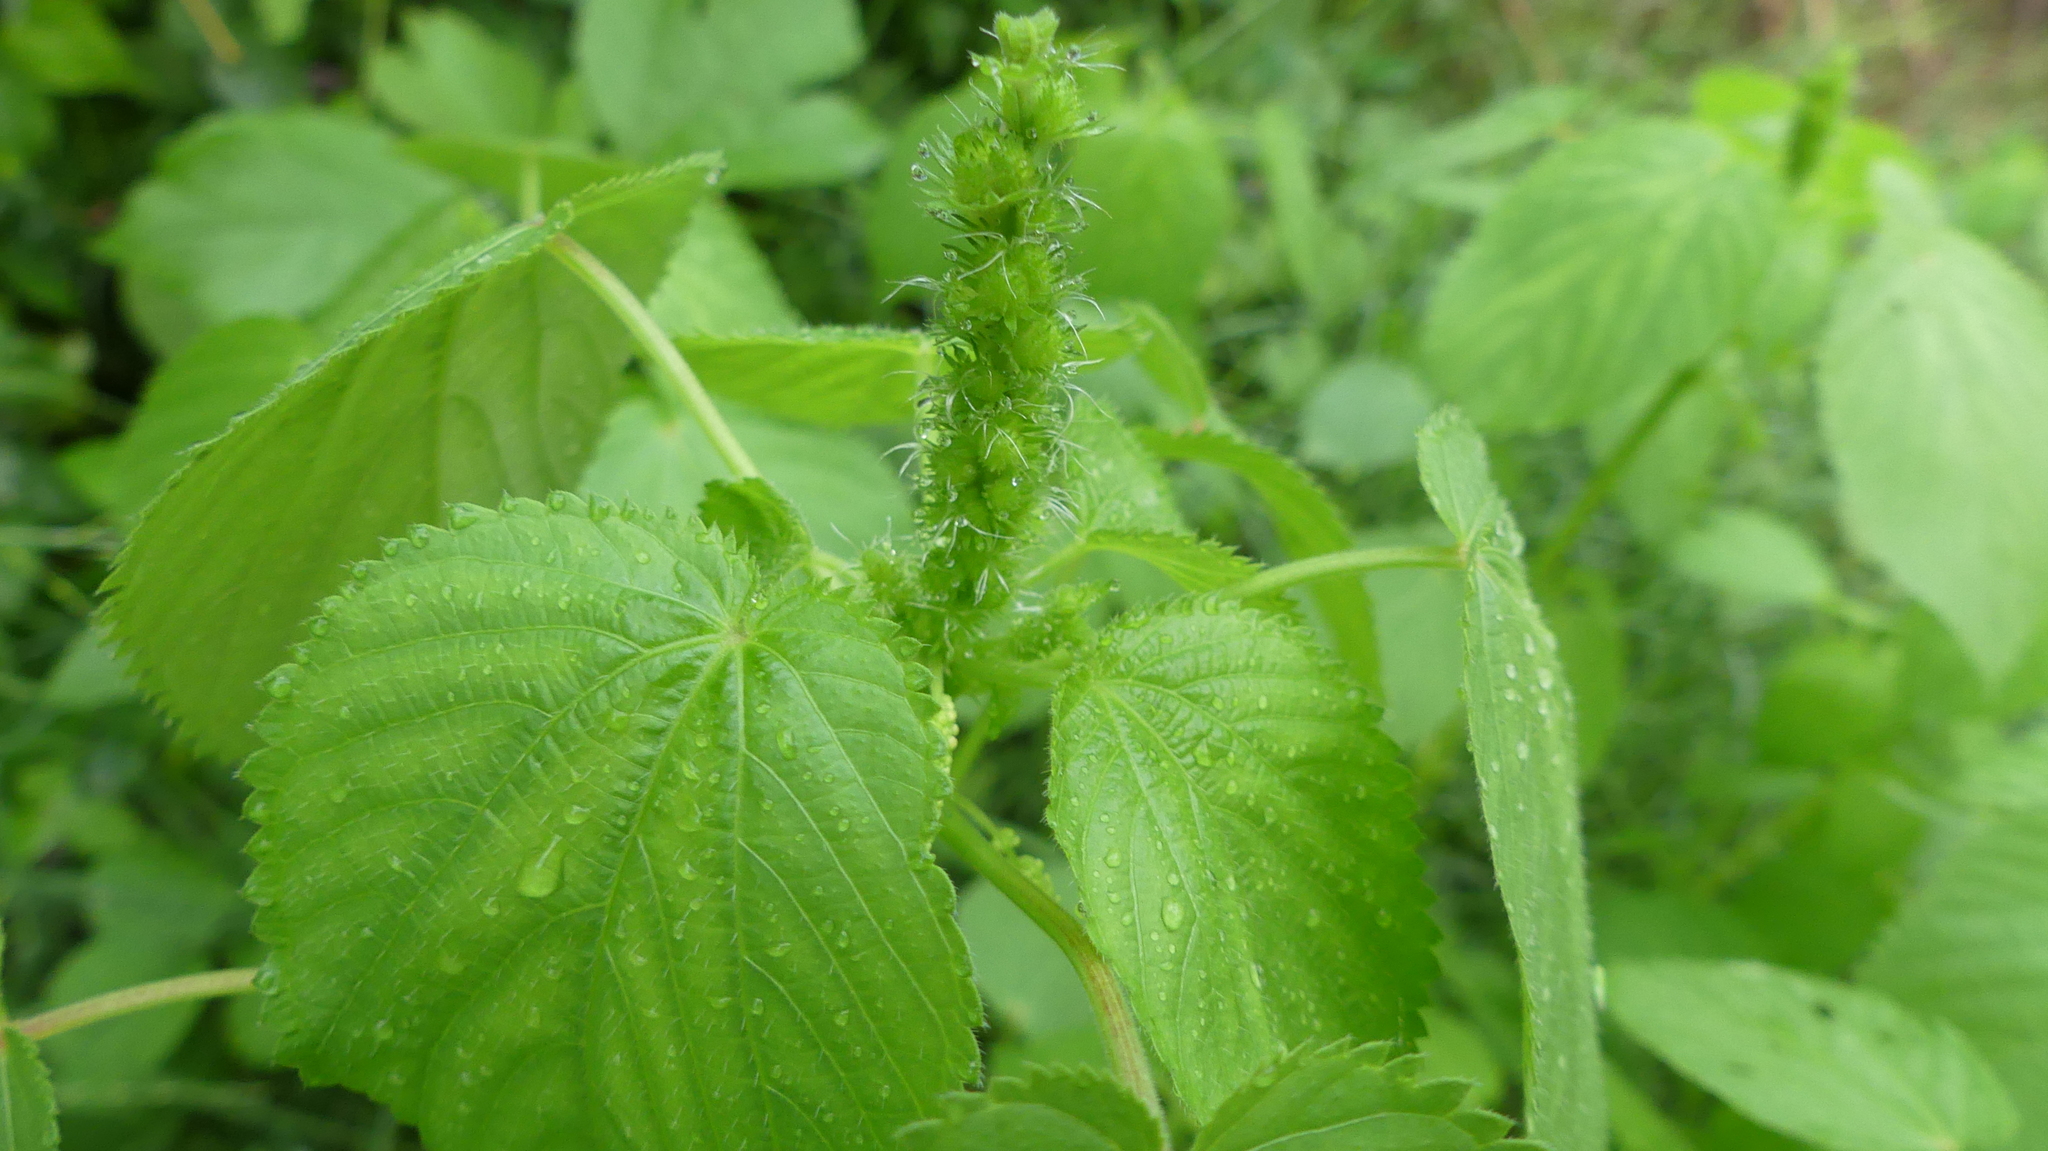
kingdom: Plantae
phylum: Tracheophyta
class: Magnoliopsida
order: Malpighiales
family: Euphorbiaceae
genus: Acalypha
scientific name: Acalypha ostryifolia
